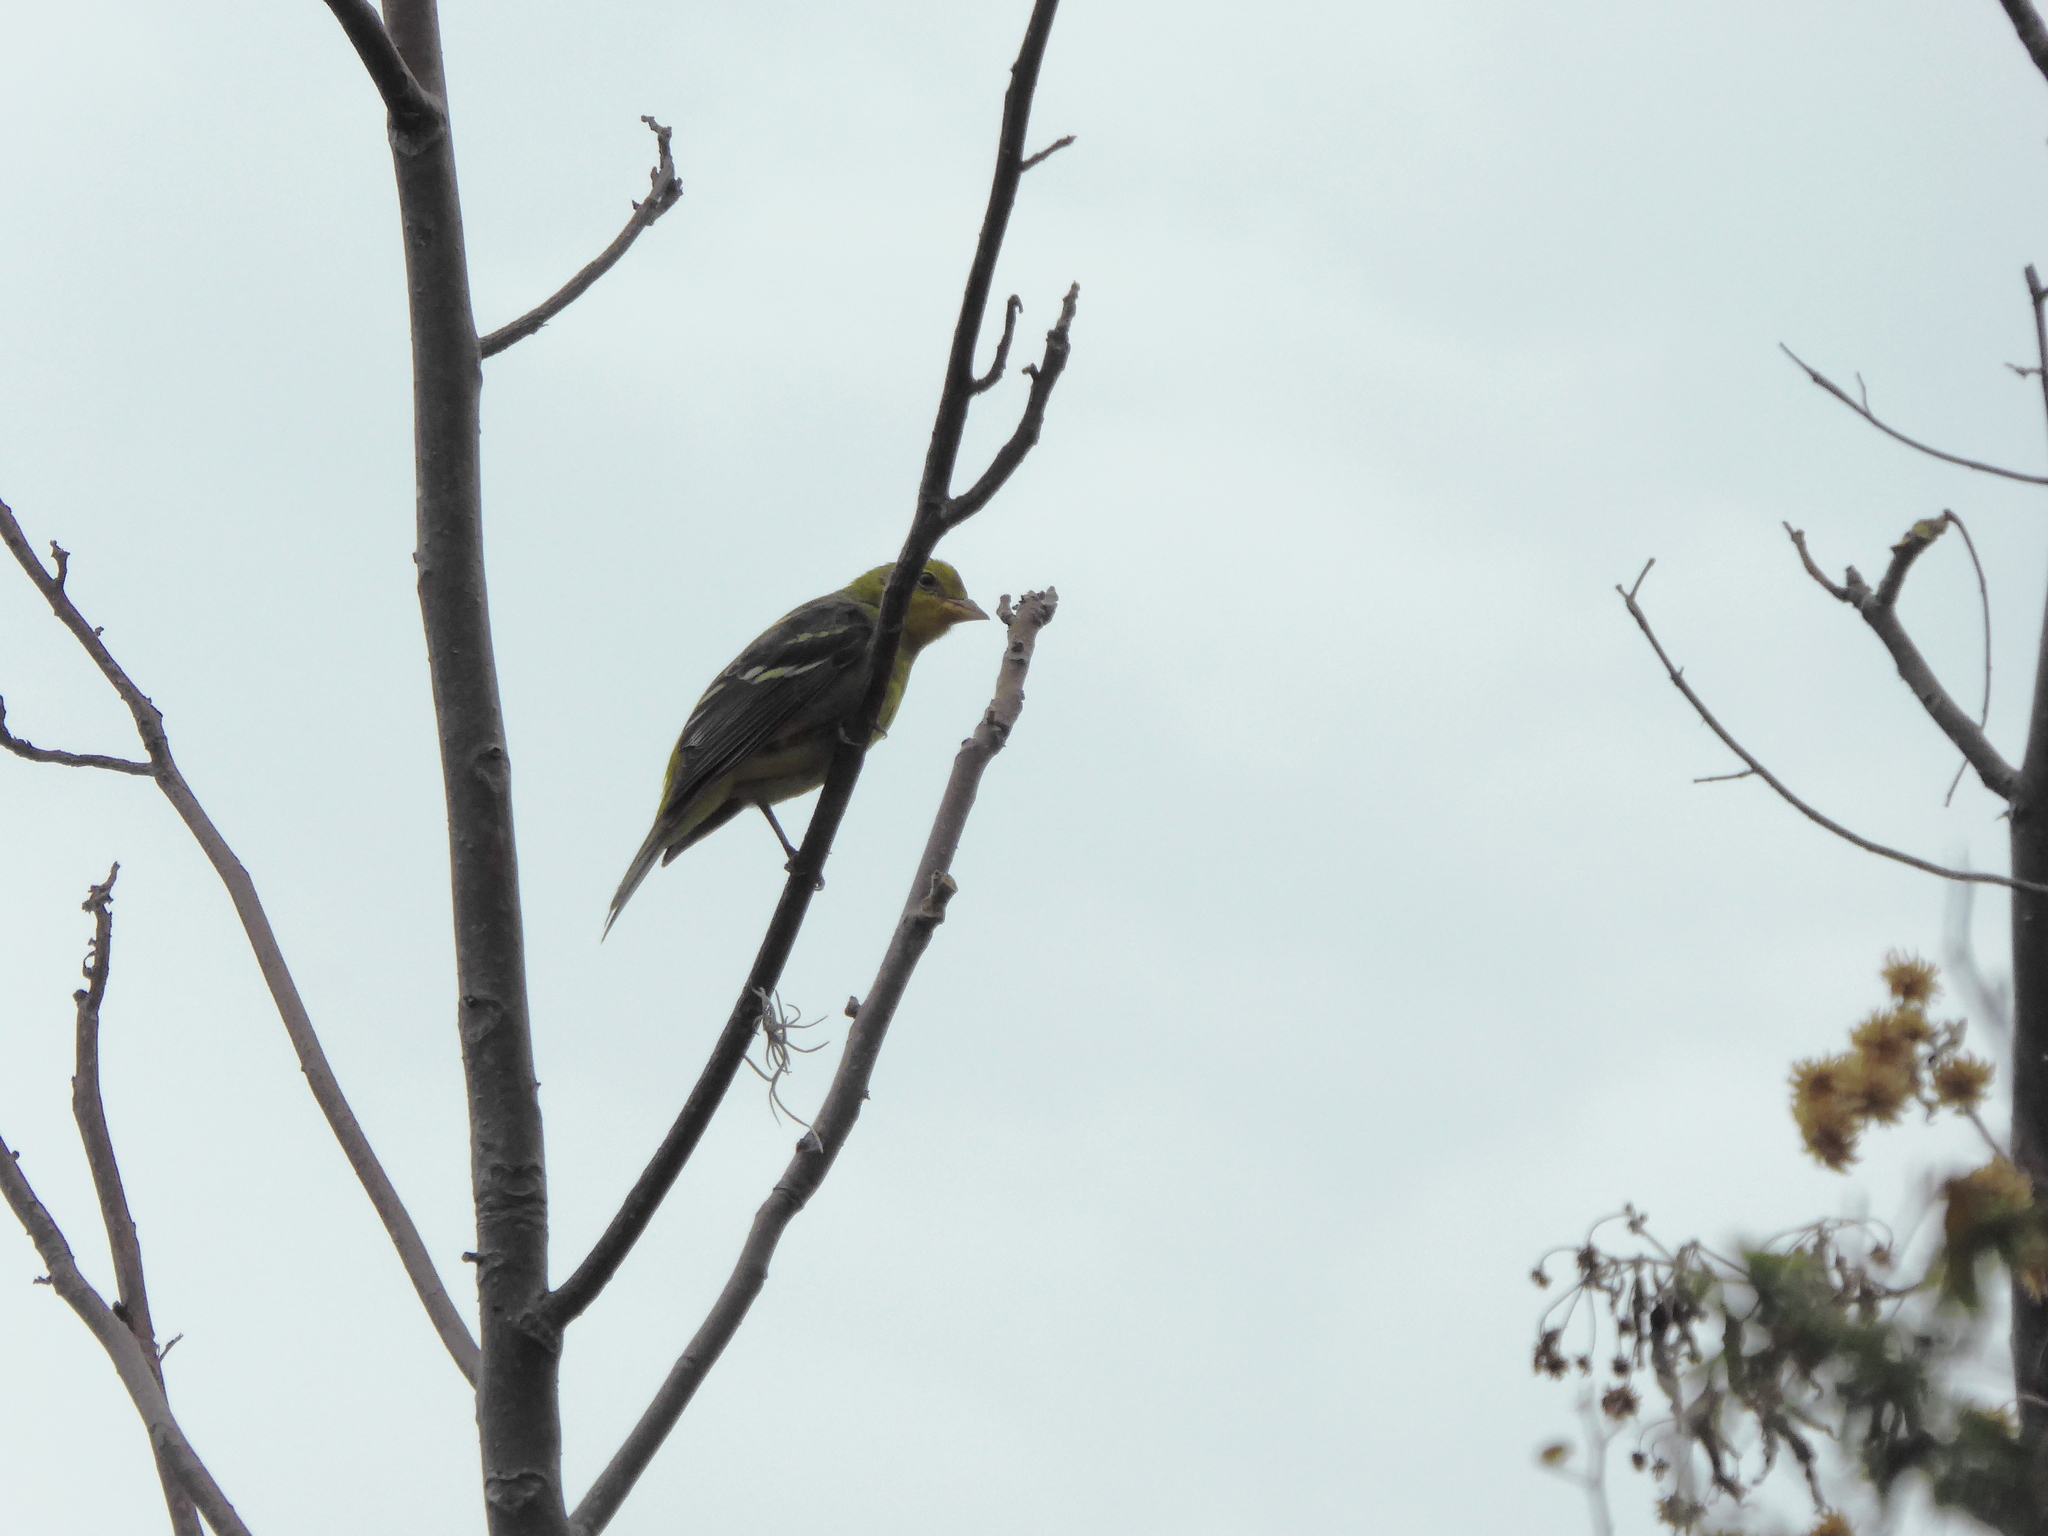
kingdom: Animalia
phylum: Chordata
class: Aves
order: Passeriformes
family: Cardinalidae
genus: Piranga
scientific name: Piranga ludoviciana
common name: Western tanager
